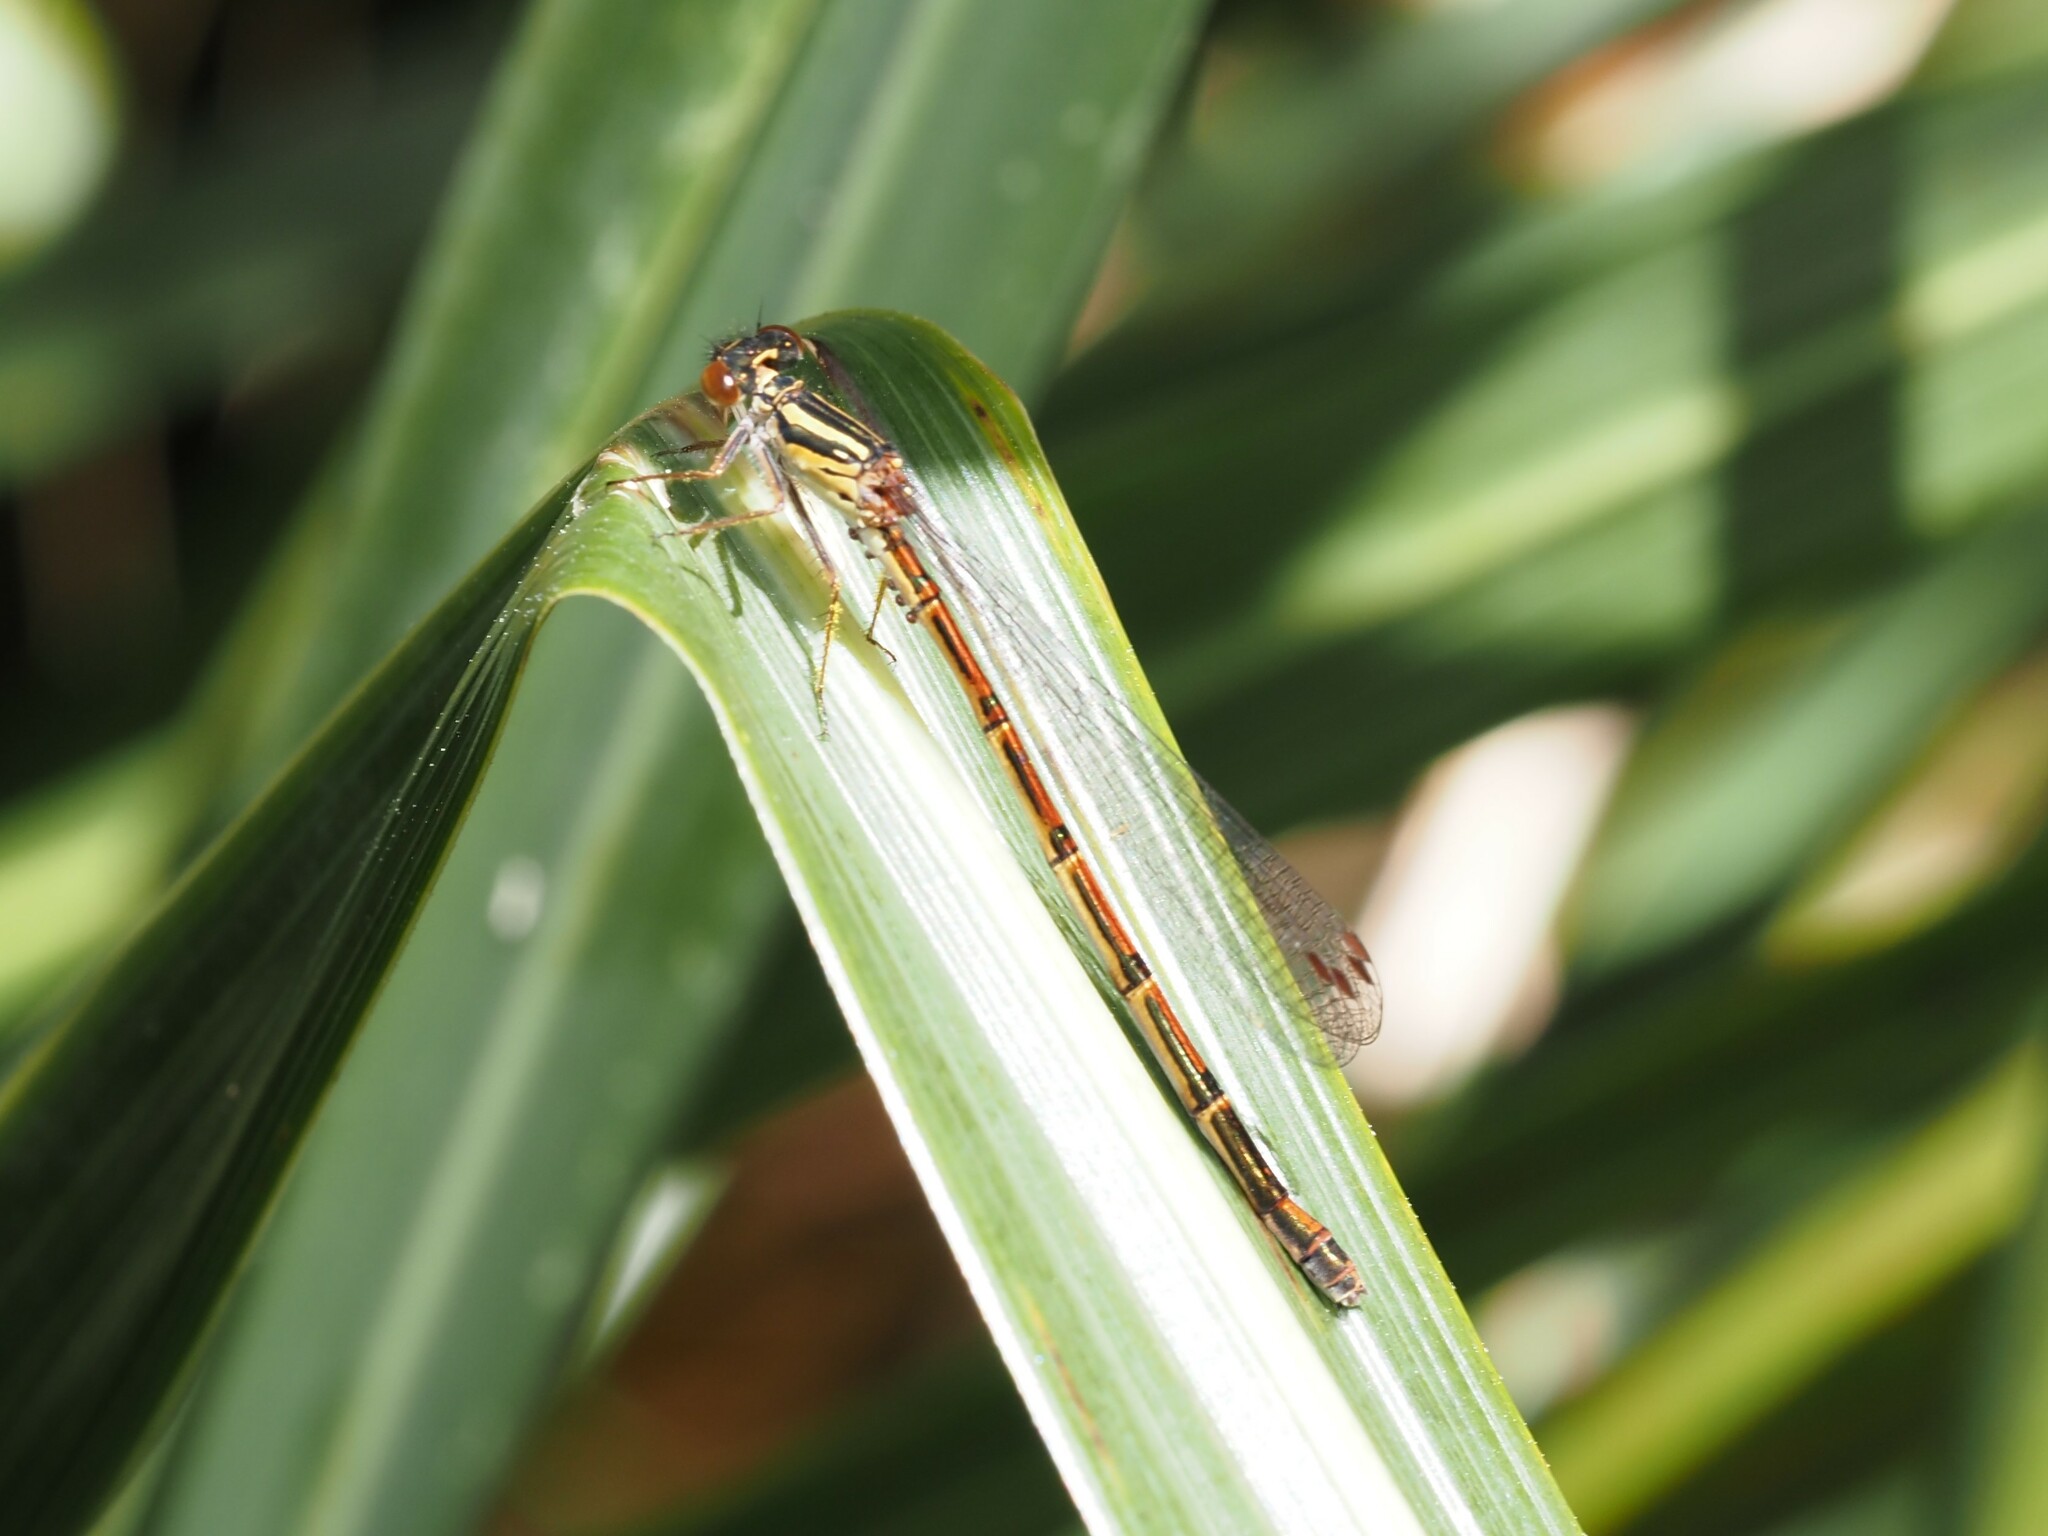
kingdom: Animalia
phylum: Arthropoda
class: Insecta
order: Odonata
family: Coenagrionidae
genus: Xanthocnemis
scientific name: Xanthocnemis zealandica
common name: Common redcoat damselfly
